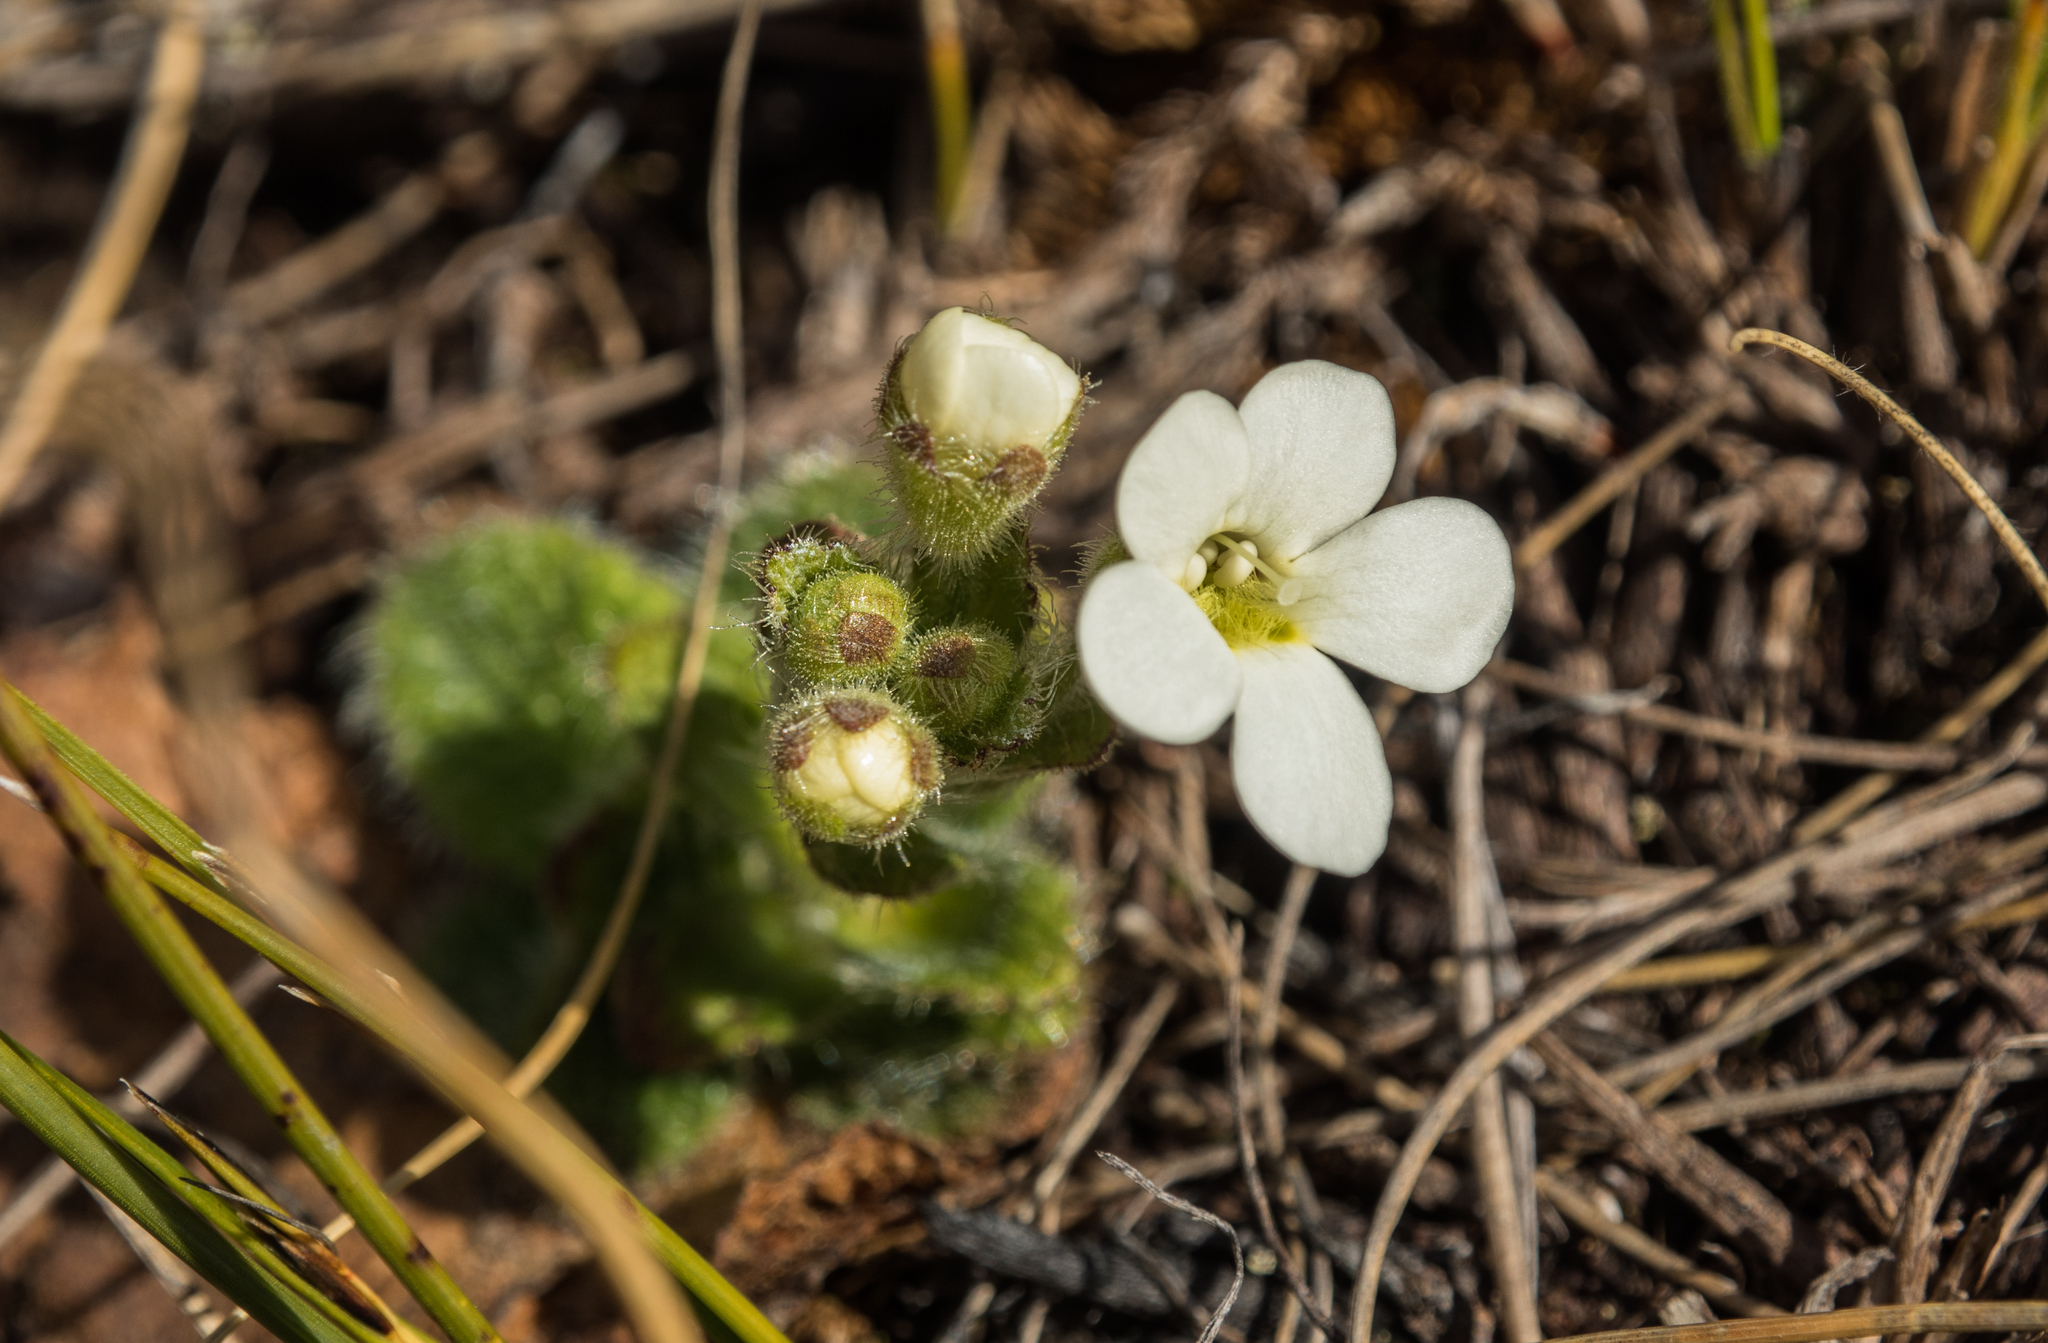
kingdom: Plantae
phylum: Tracheophyta
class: Magnoliopsida
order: Lamiales
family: Plantaginaceae
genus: Ourisia
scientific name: Ourisia sessilifolia
